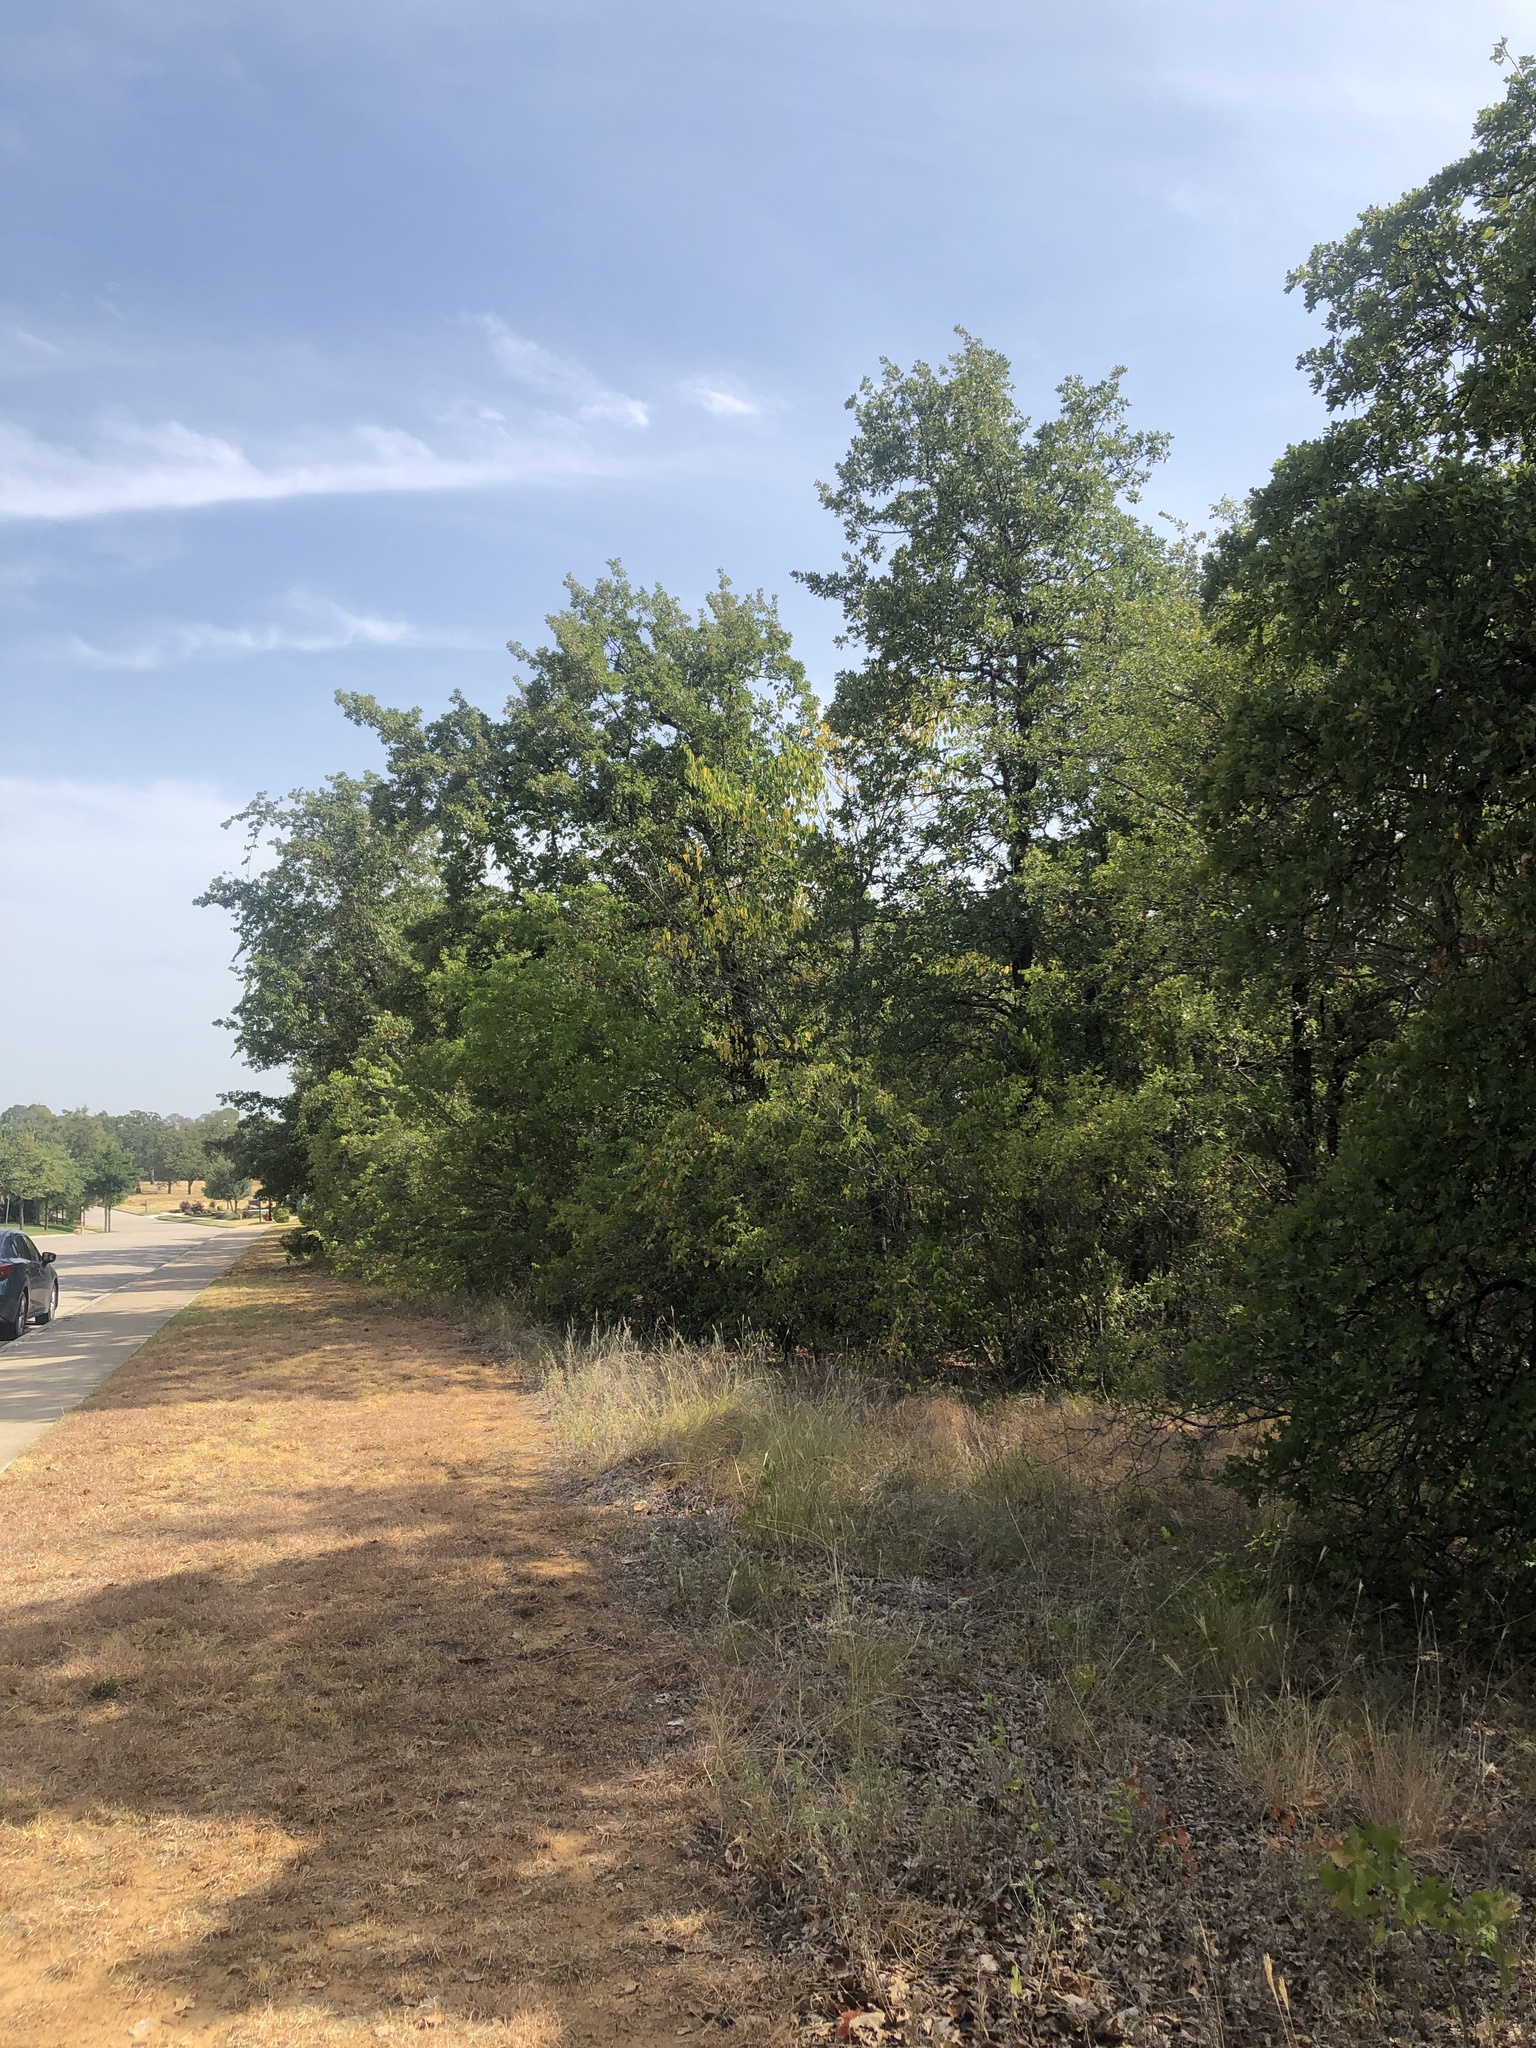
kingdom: Animalia
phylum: Chordata
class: Aves
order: Piciformes
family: Picidae
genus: Melanerpes
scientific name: Melanerpes carolinus
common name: Red-bellied woodpecker
